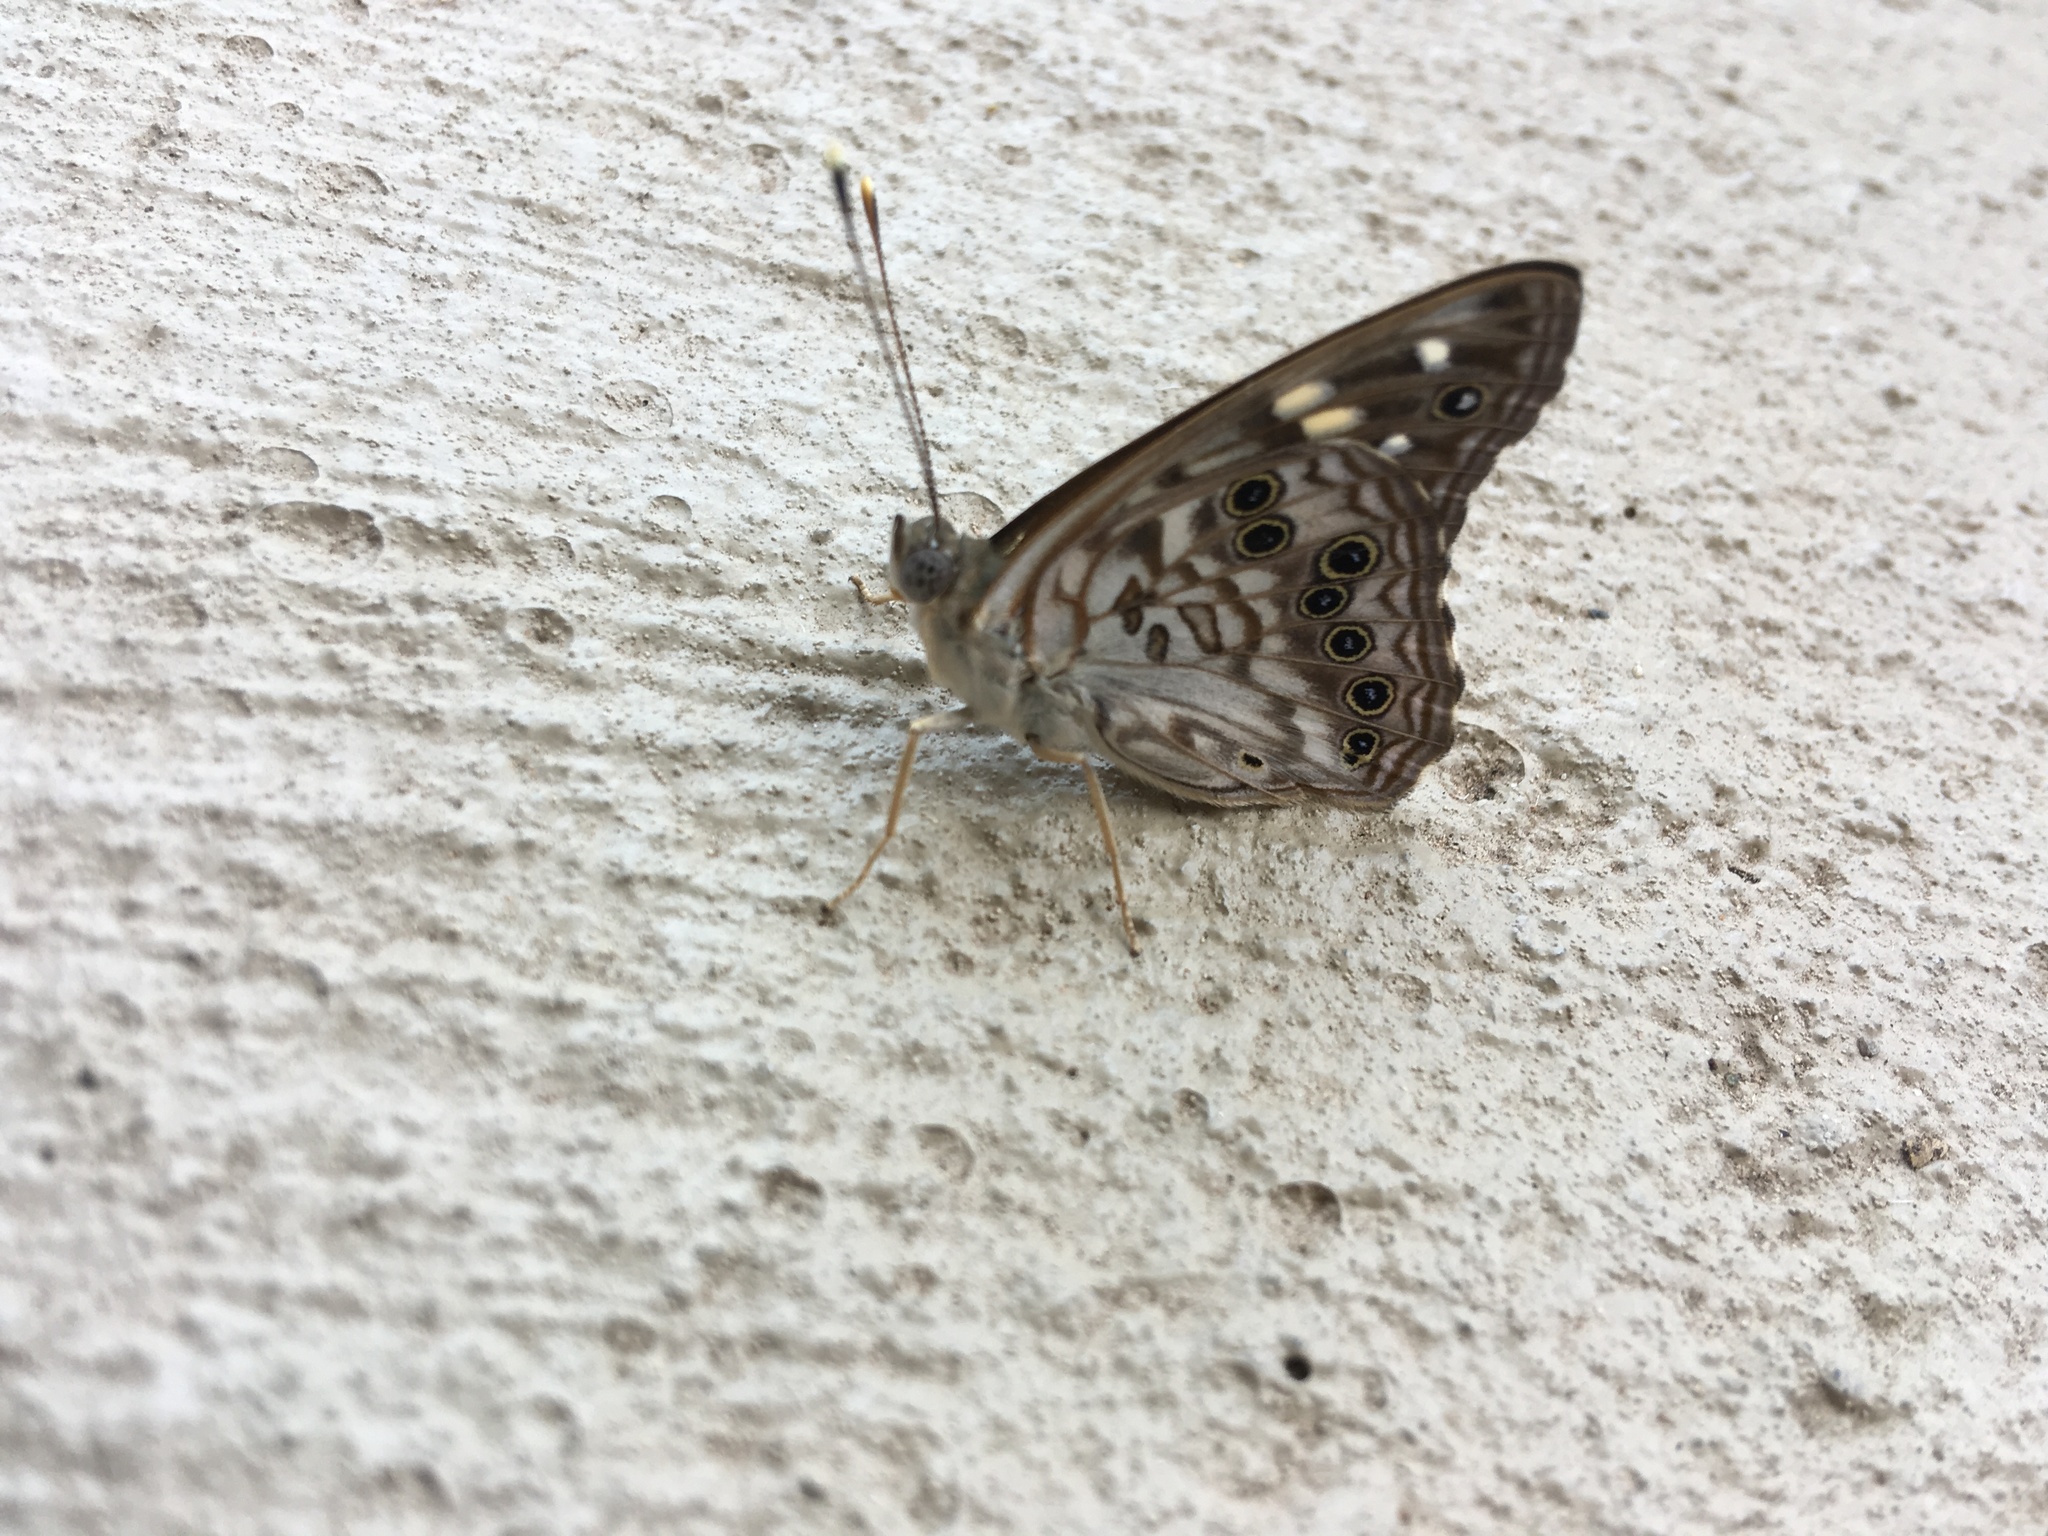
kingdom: Animalia
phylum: Arthropoda
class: Insecta
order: Lepidoptera
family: Nymphalidae
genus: Asterocampa
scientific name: Asterocampa celtis
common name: Hackberry emperor
